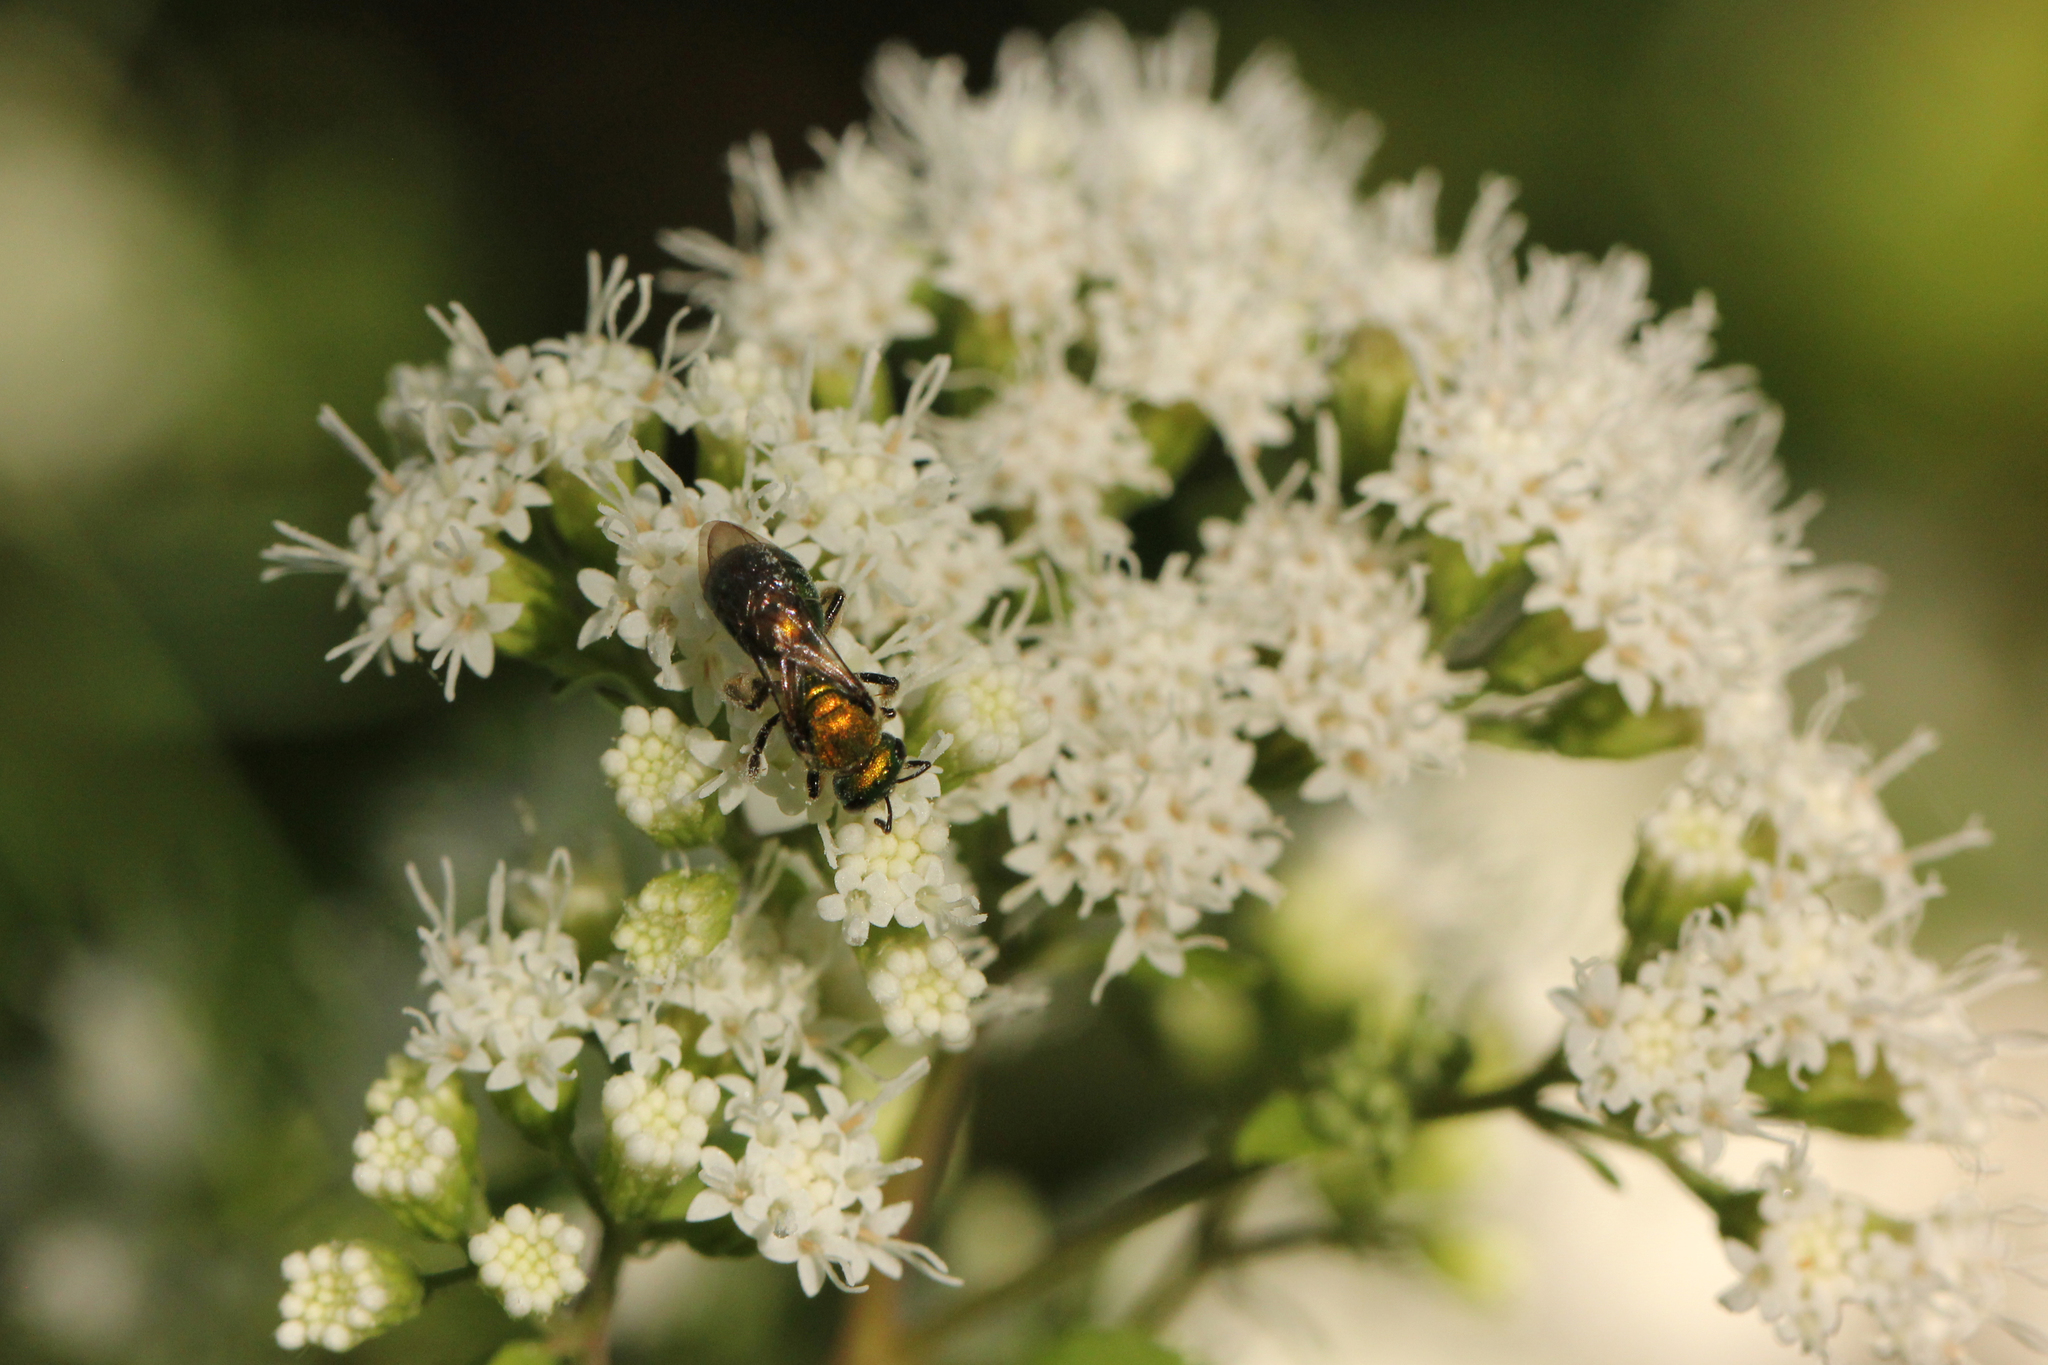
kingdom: Animalia
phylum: Arthropoda
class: Insecta
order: Hymenoptera
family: Halictidae
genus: Augochlora
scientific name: Augochlora pura
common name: Pure green sweat bee
